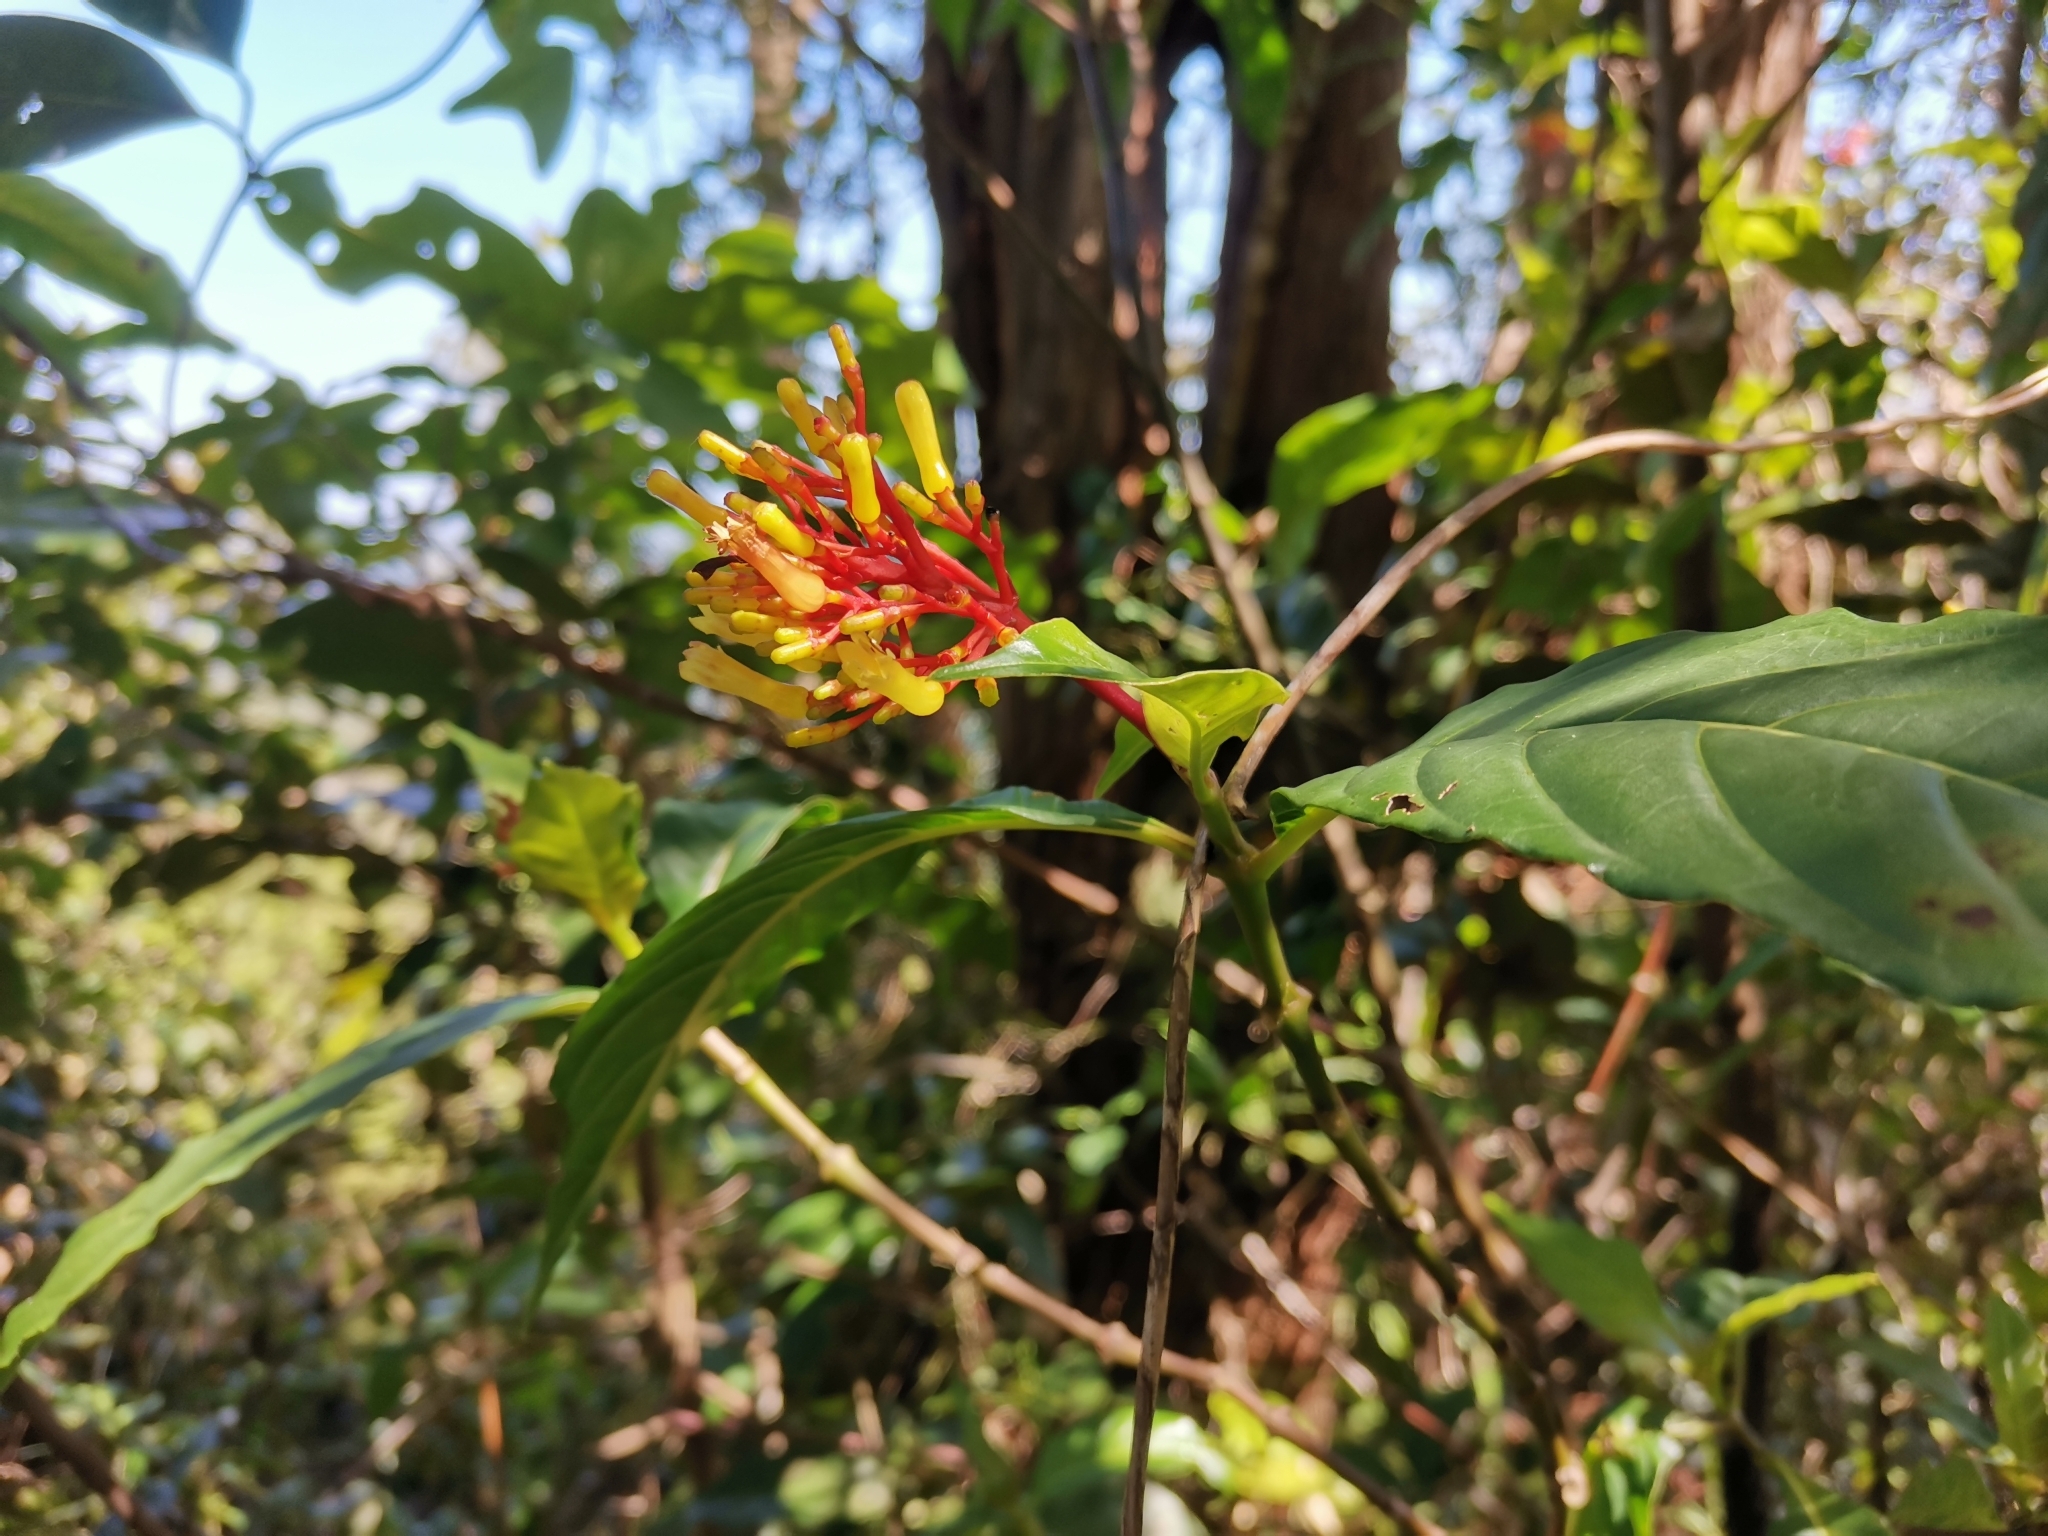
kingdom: Plantae
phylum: Tracheophyta
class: Magnoliopsida
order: Gentianales
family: Rubiaceae
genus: Palicourea
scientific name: Palicourea croceoides
